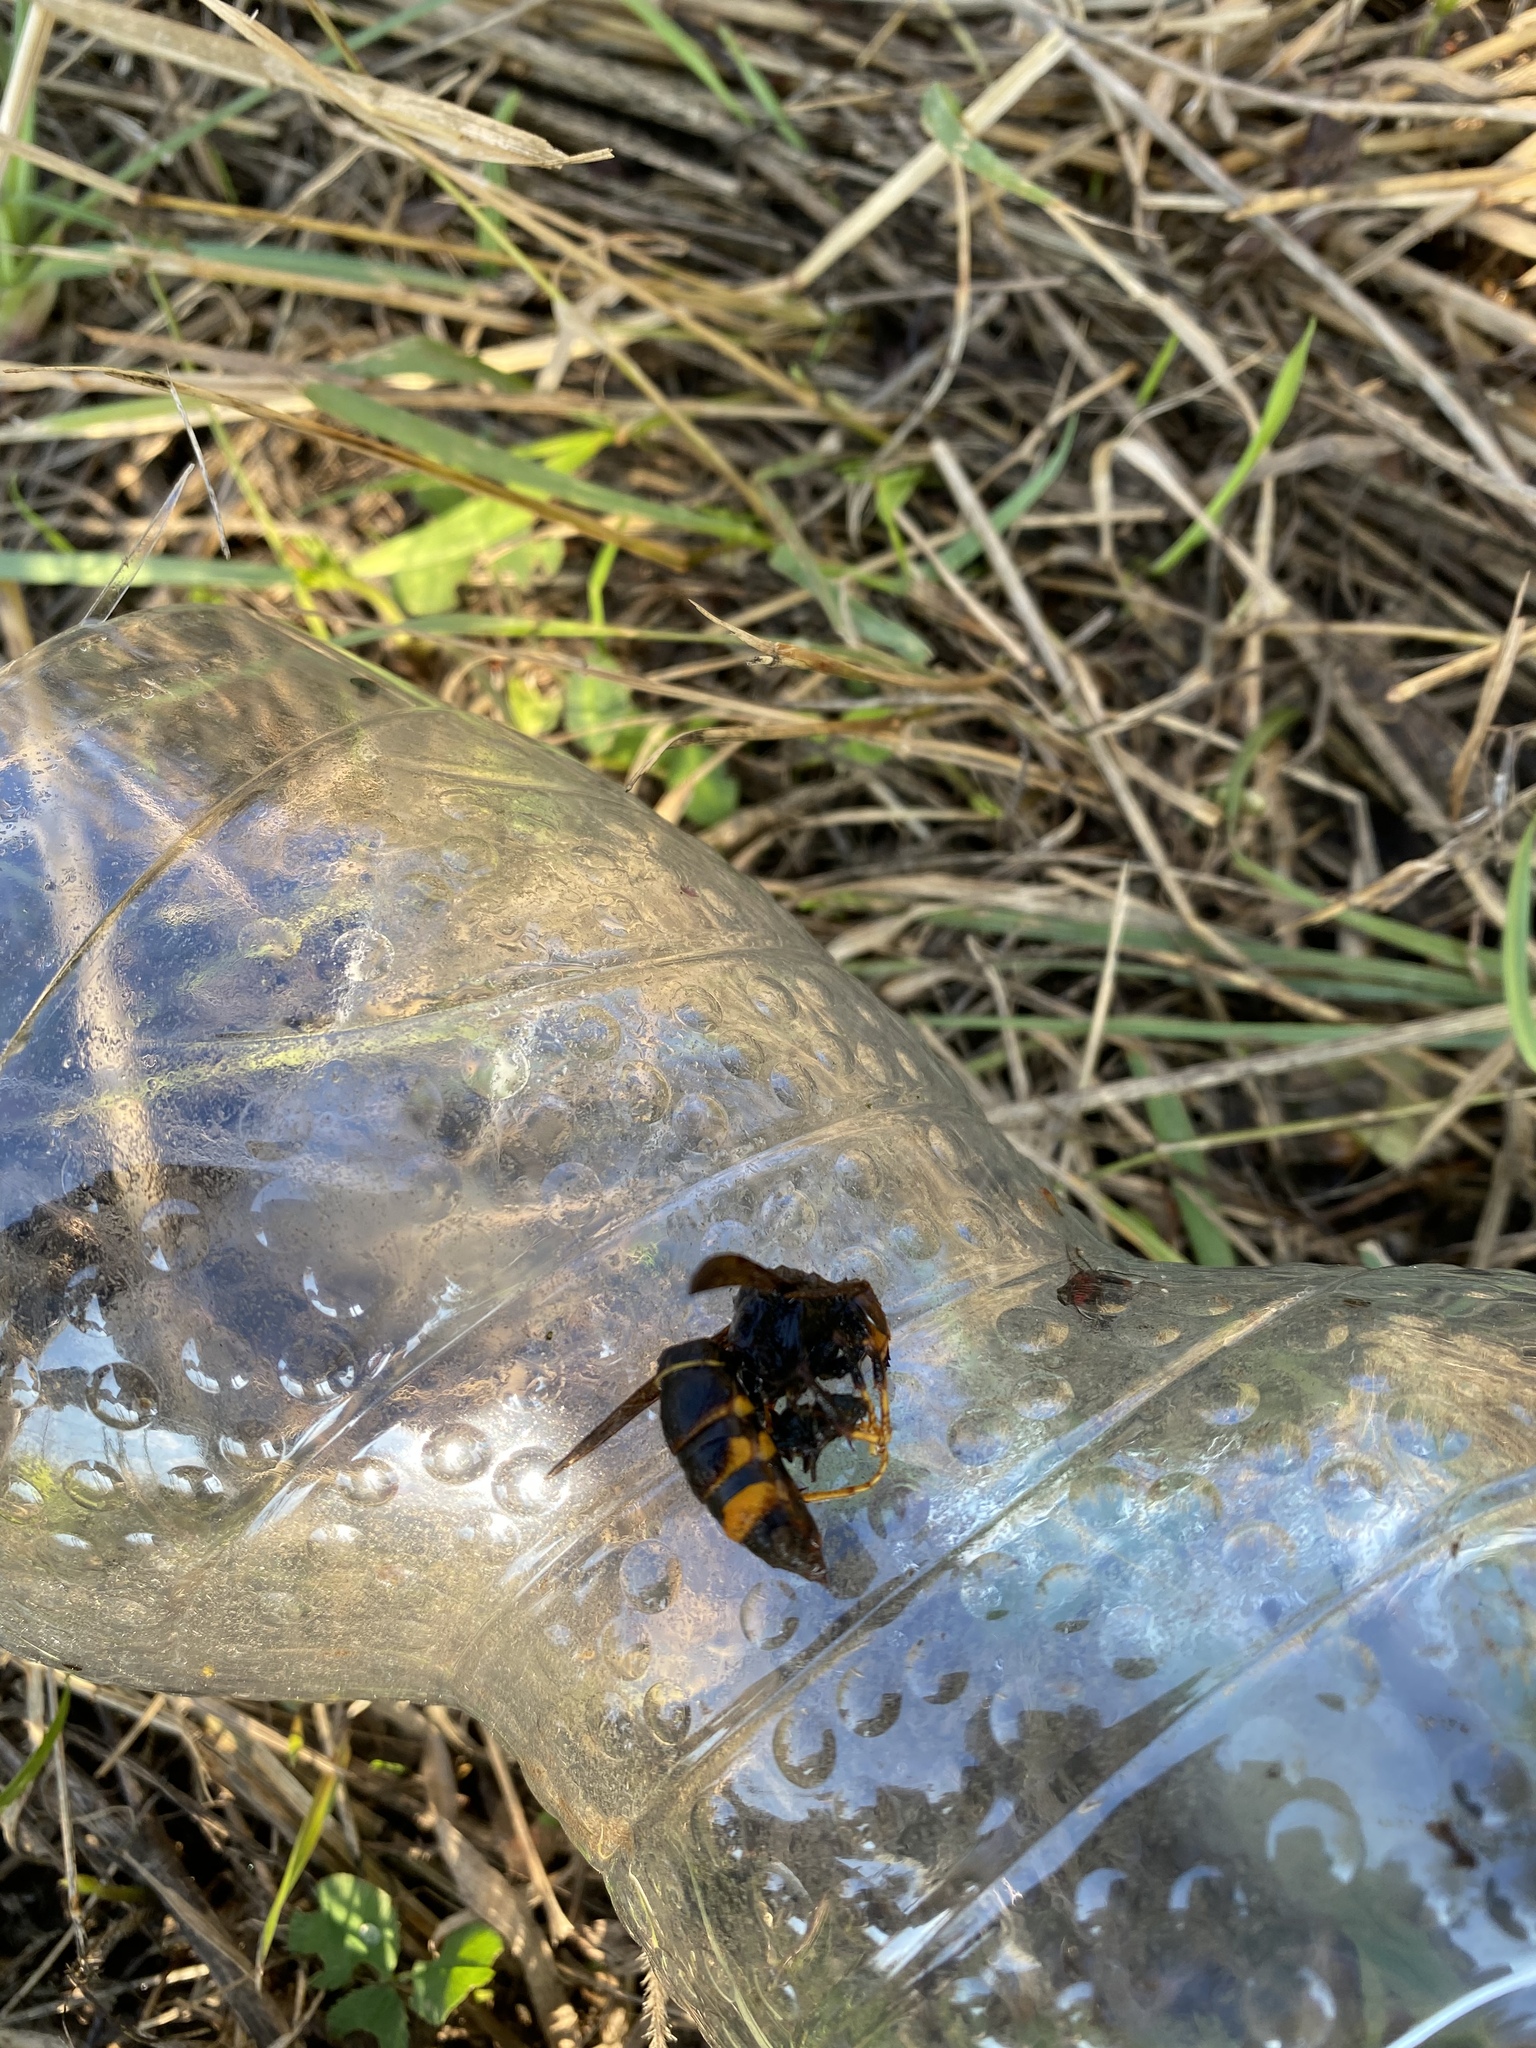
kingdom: Animalia
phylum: Arthropoda
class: Insecta
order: Hymenoptera
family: Vespidae
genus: Vespa
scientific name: Vespa velutina
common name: Asian hornet
